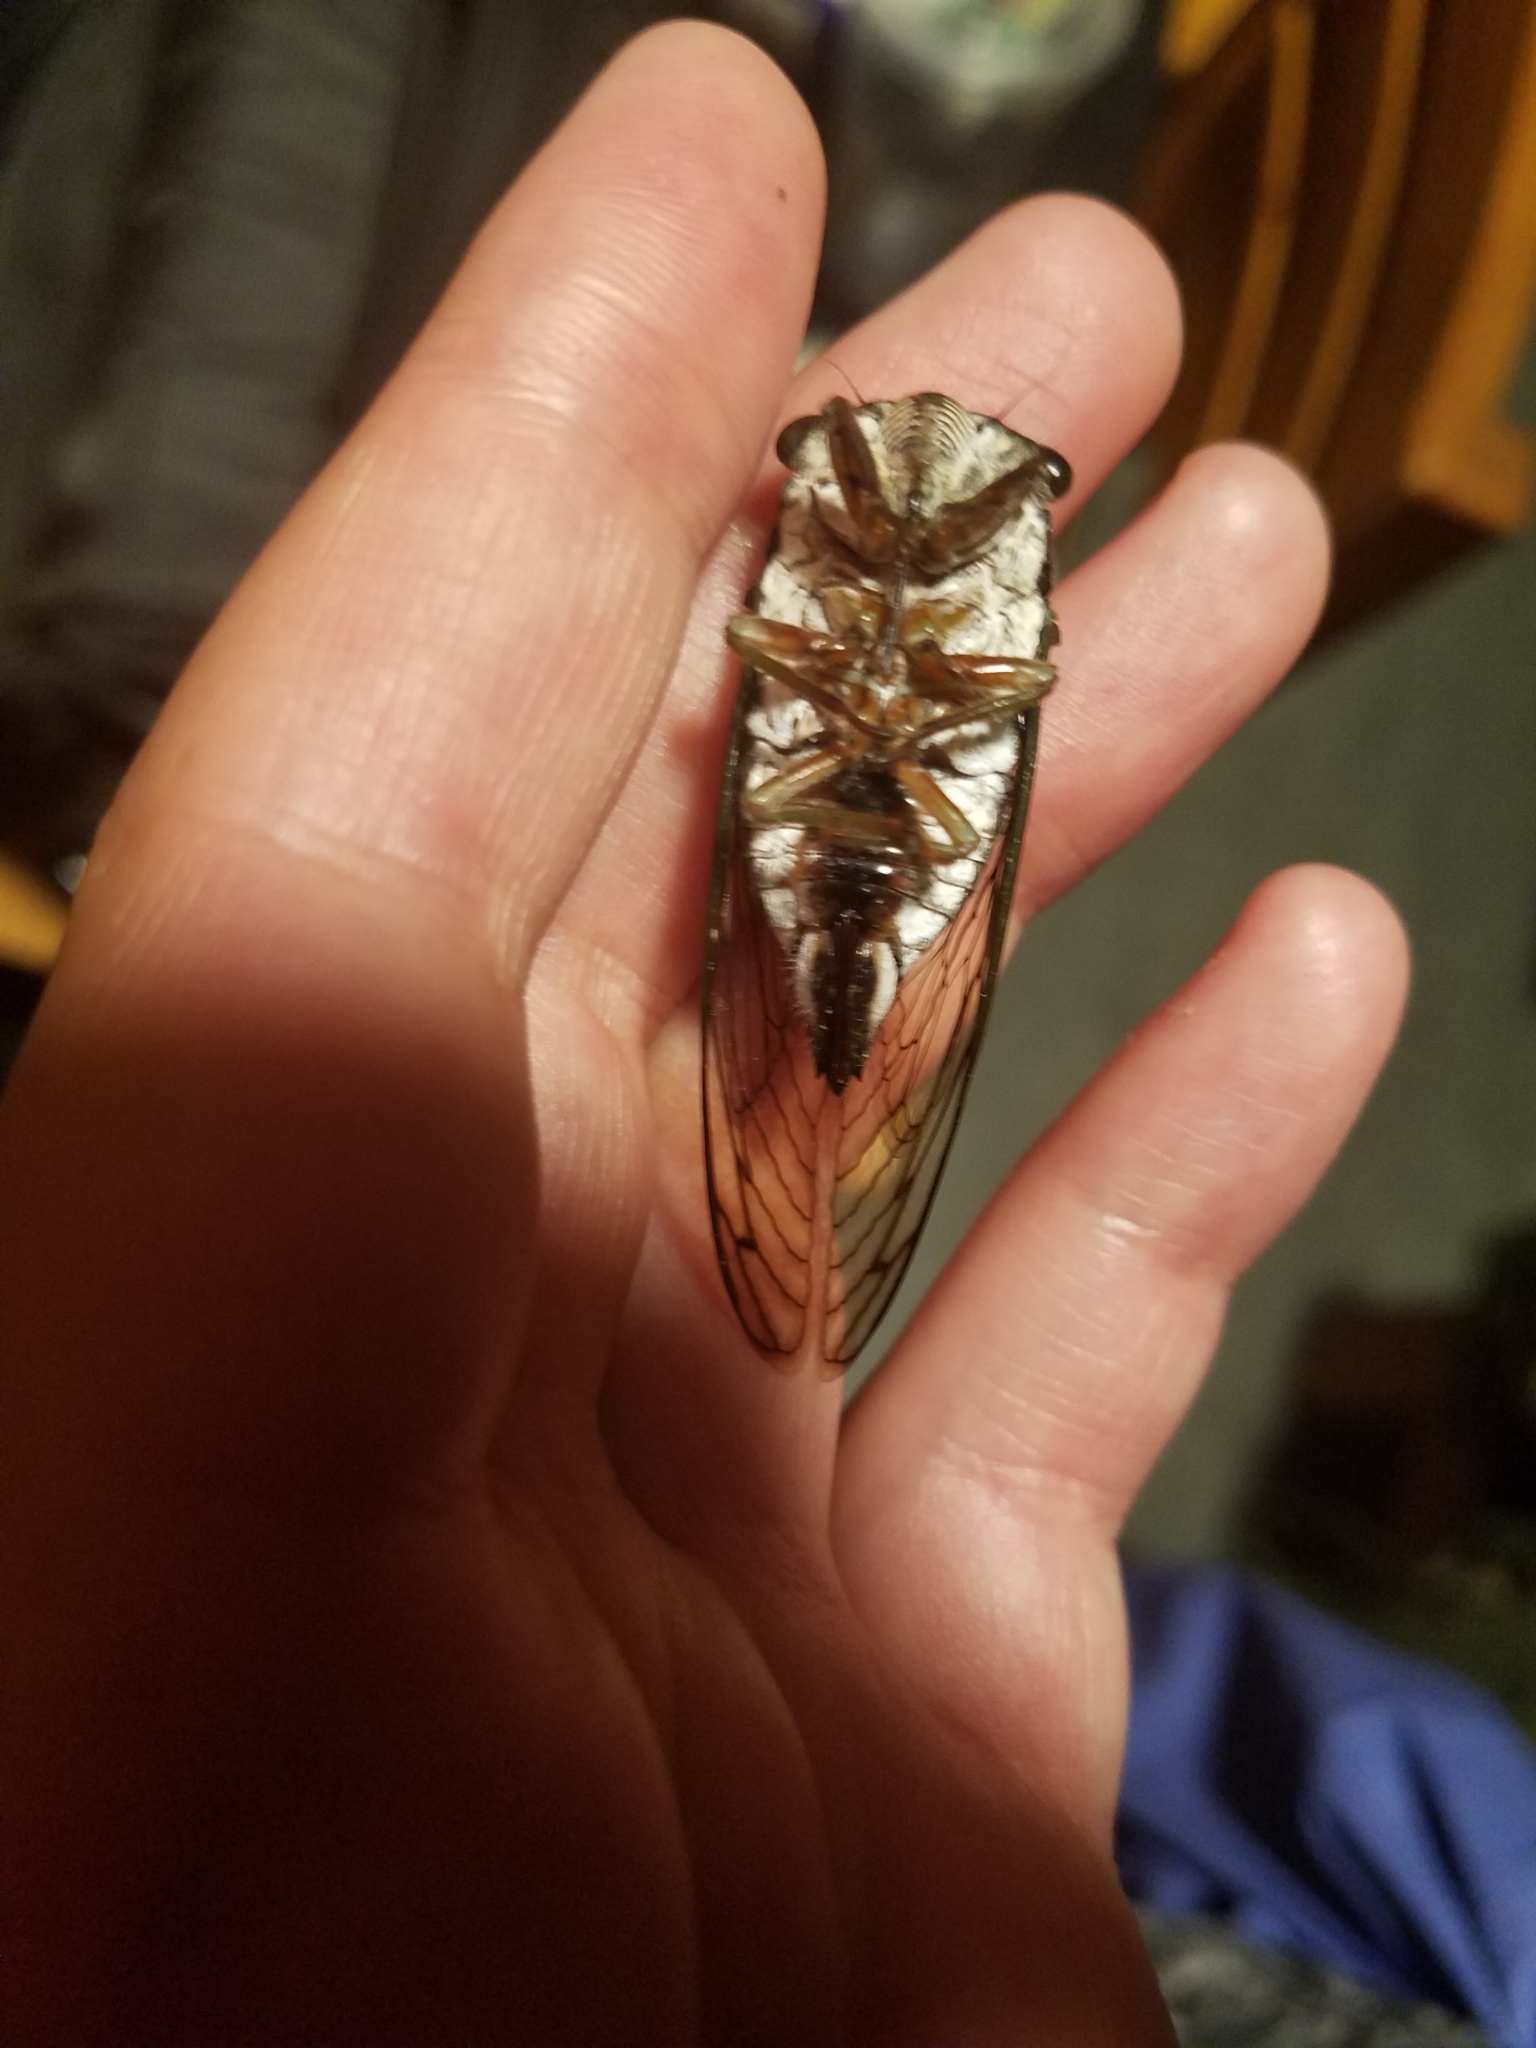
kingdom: Animalia
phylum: Arthropoda
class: Insecta
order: Hemiptera
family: Cicadidae
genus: Neotibicen
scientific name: Neotibicen lyricen
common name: Lyric cicada
